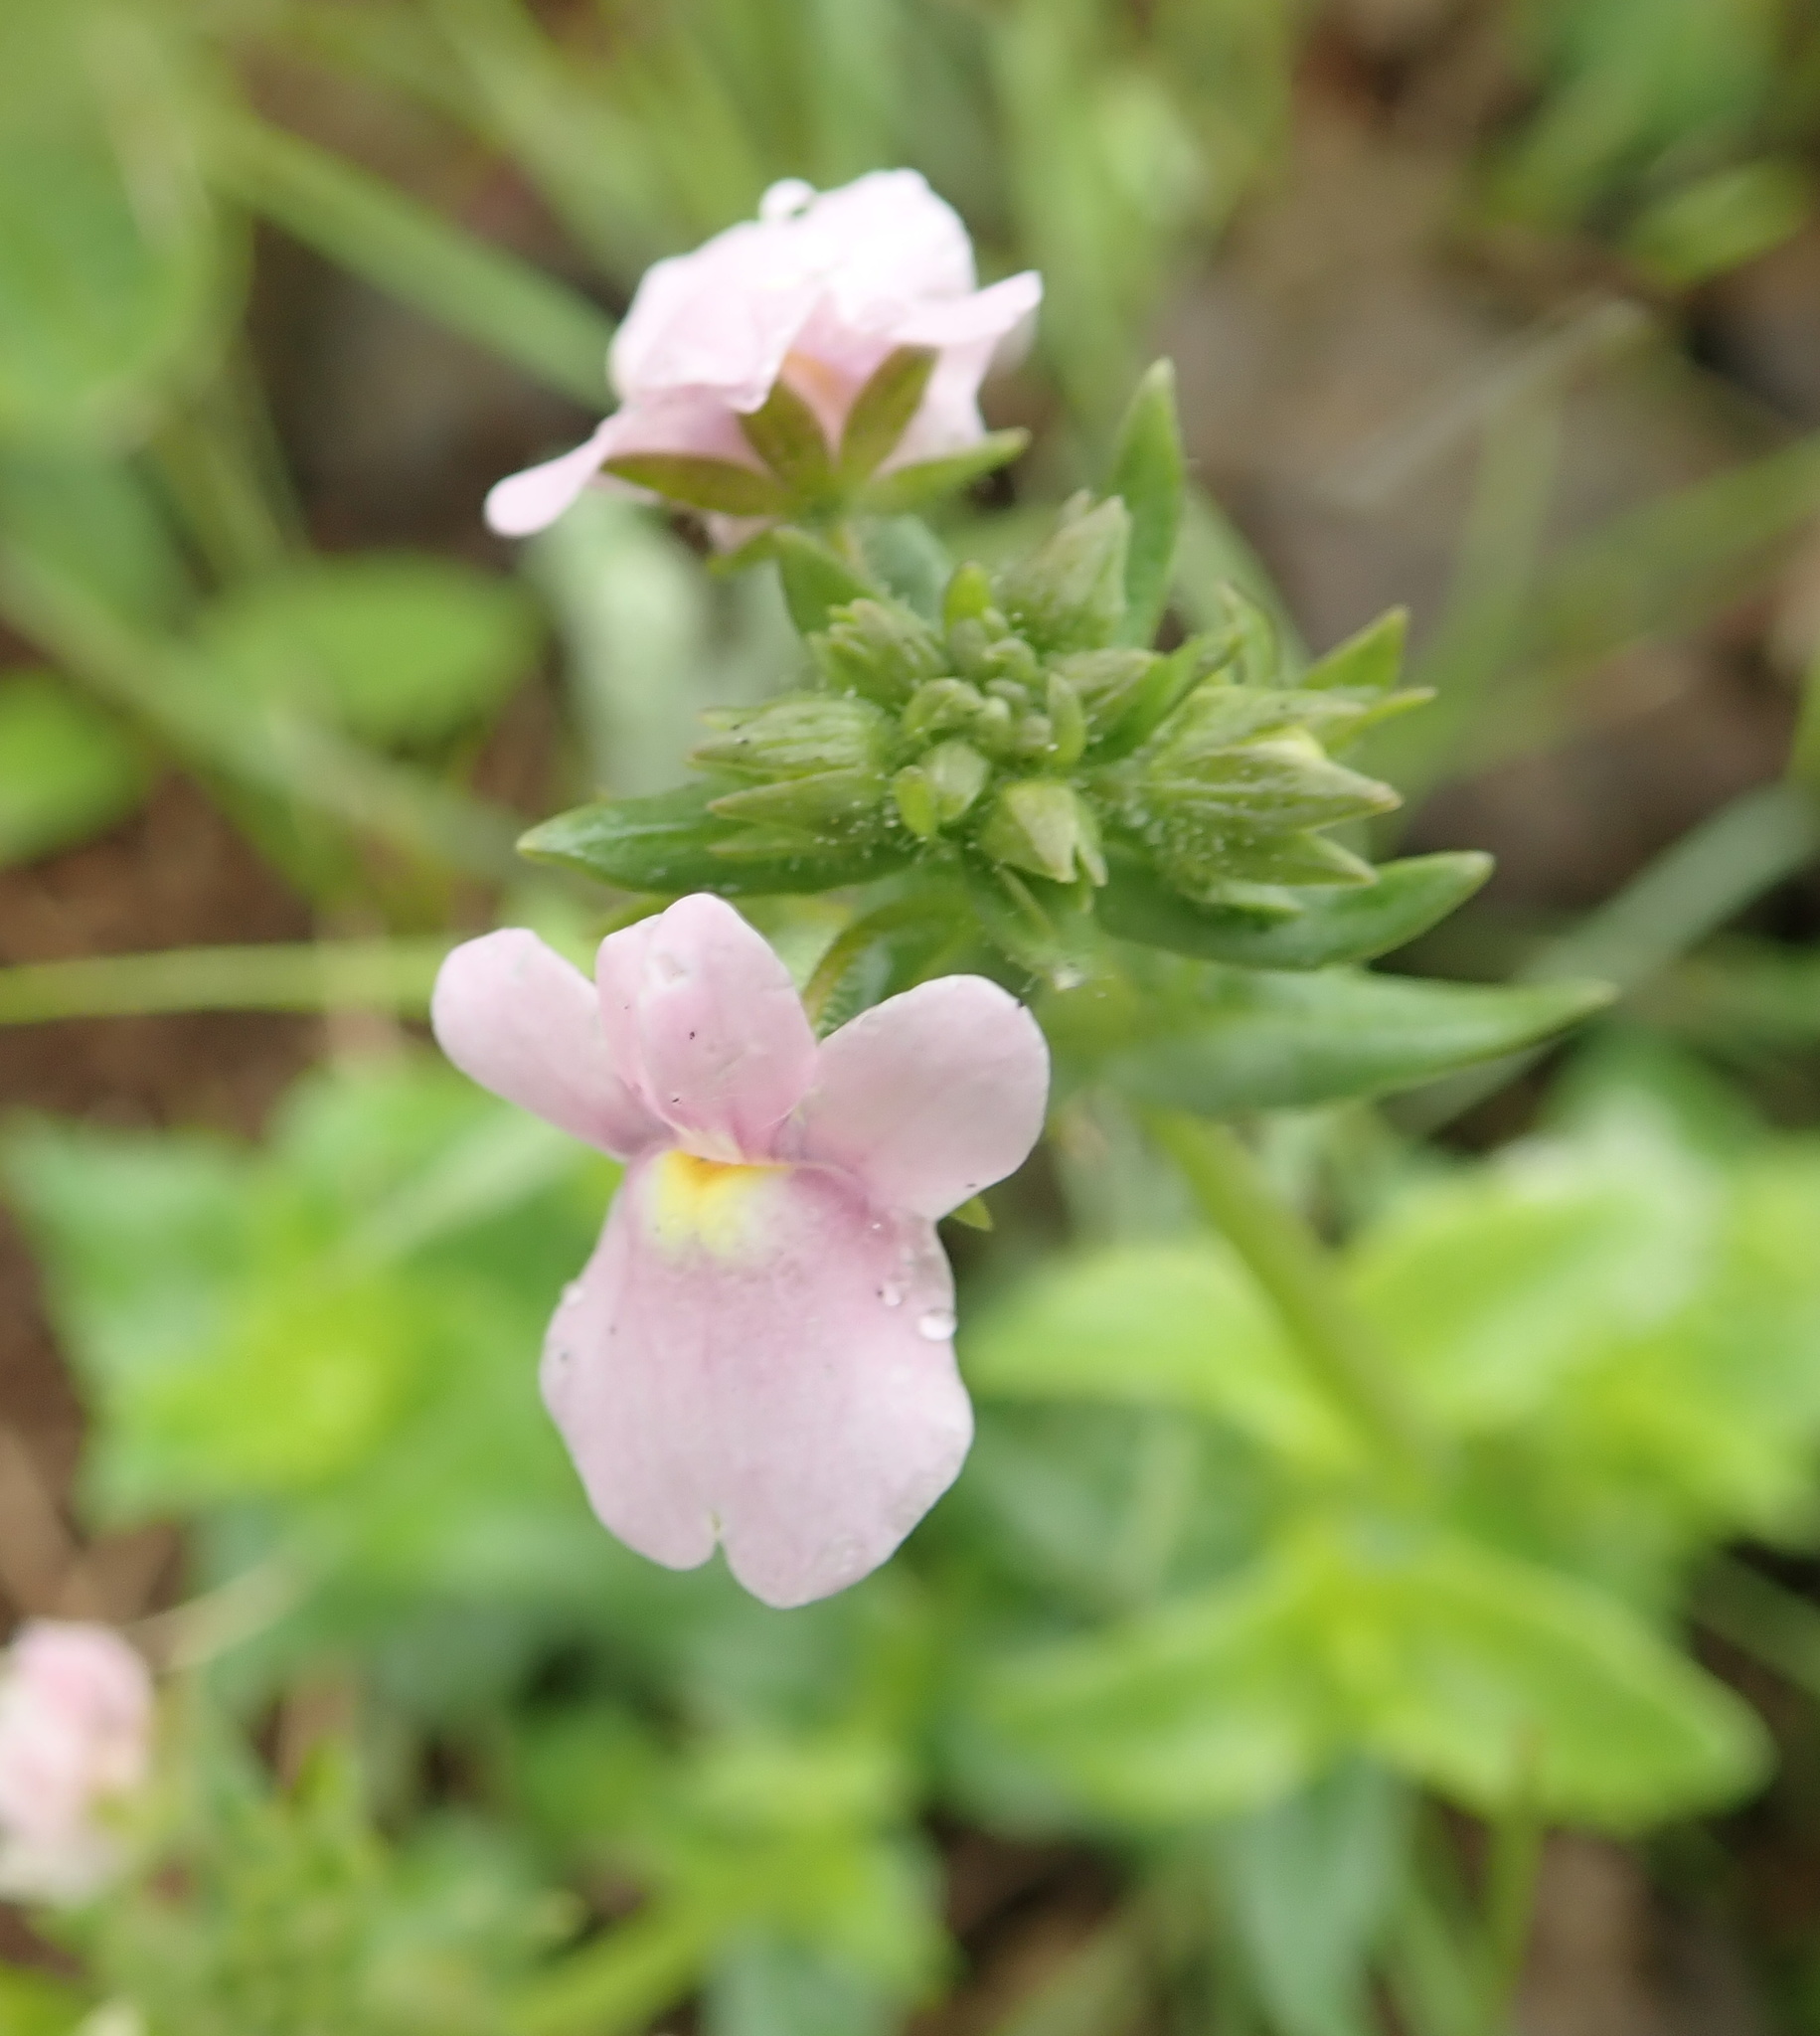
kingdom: Plantae
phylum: Tracheophyta
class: Magnoliopsida
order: Lamiales
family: Scrophulariaceae
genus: Nemesia
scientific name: Nemesia denticulata
